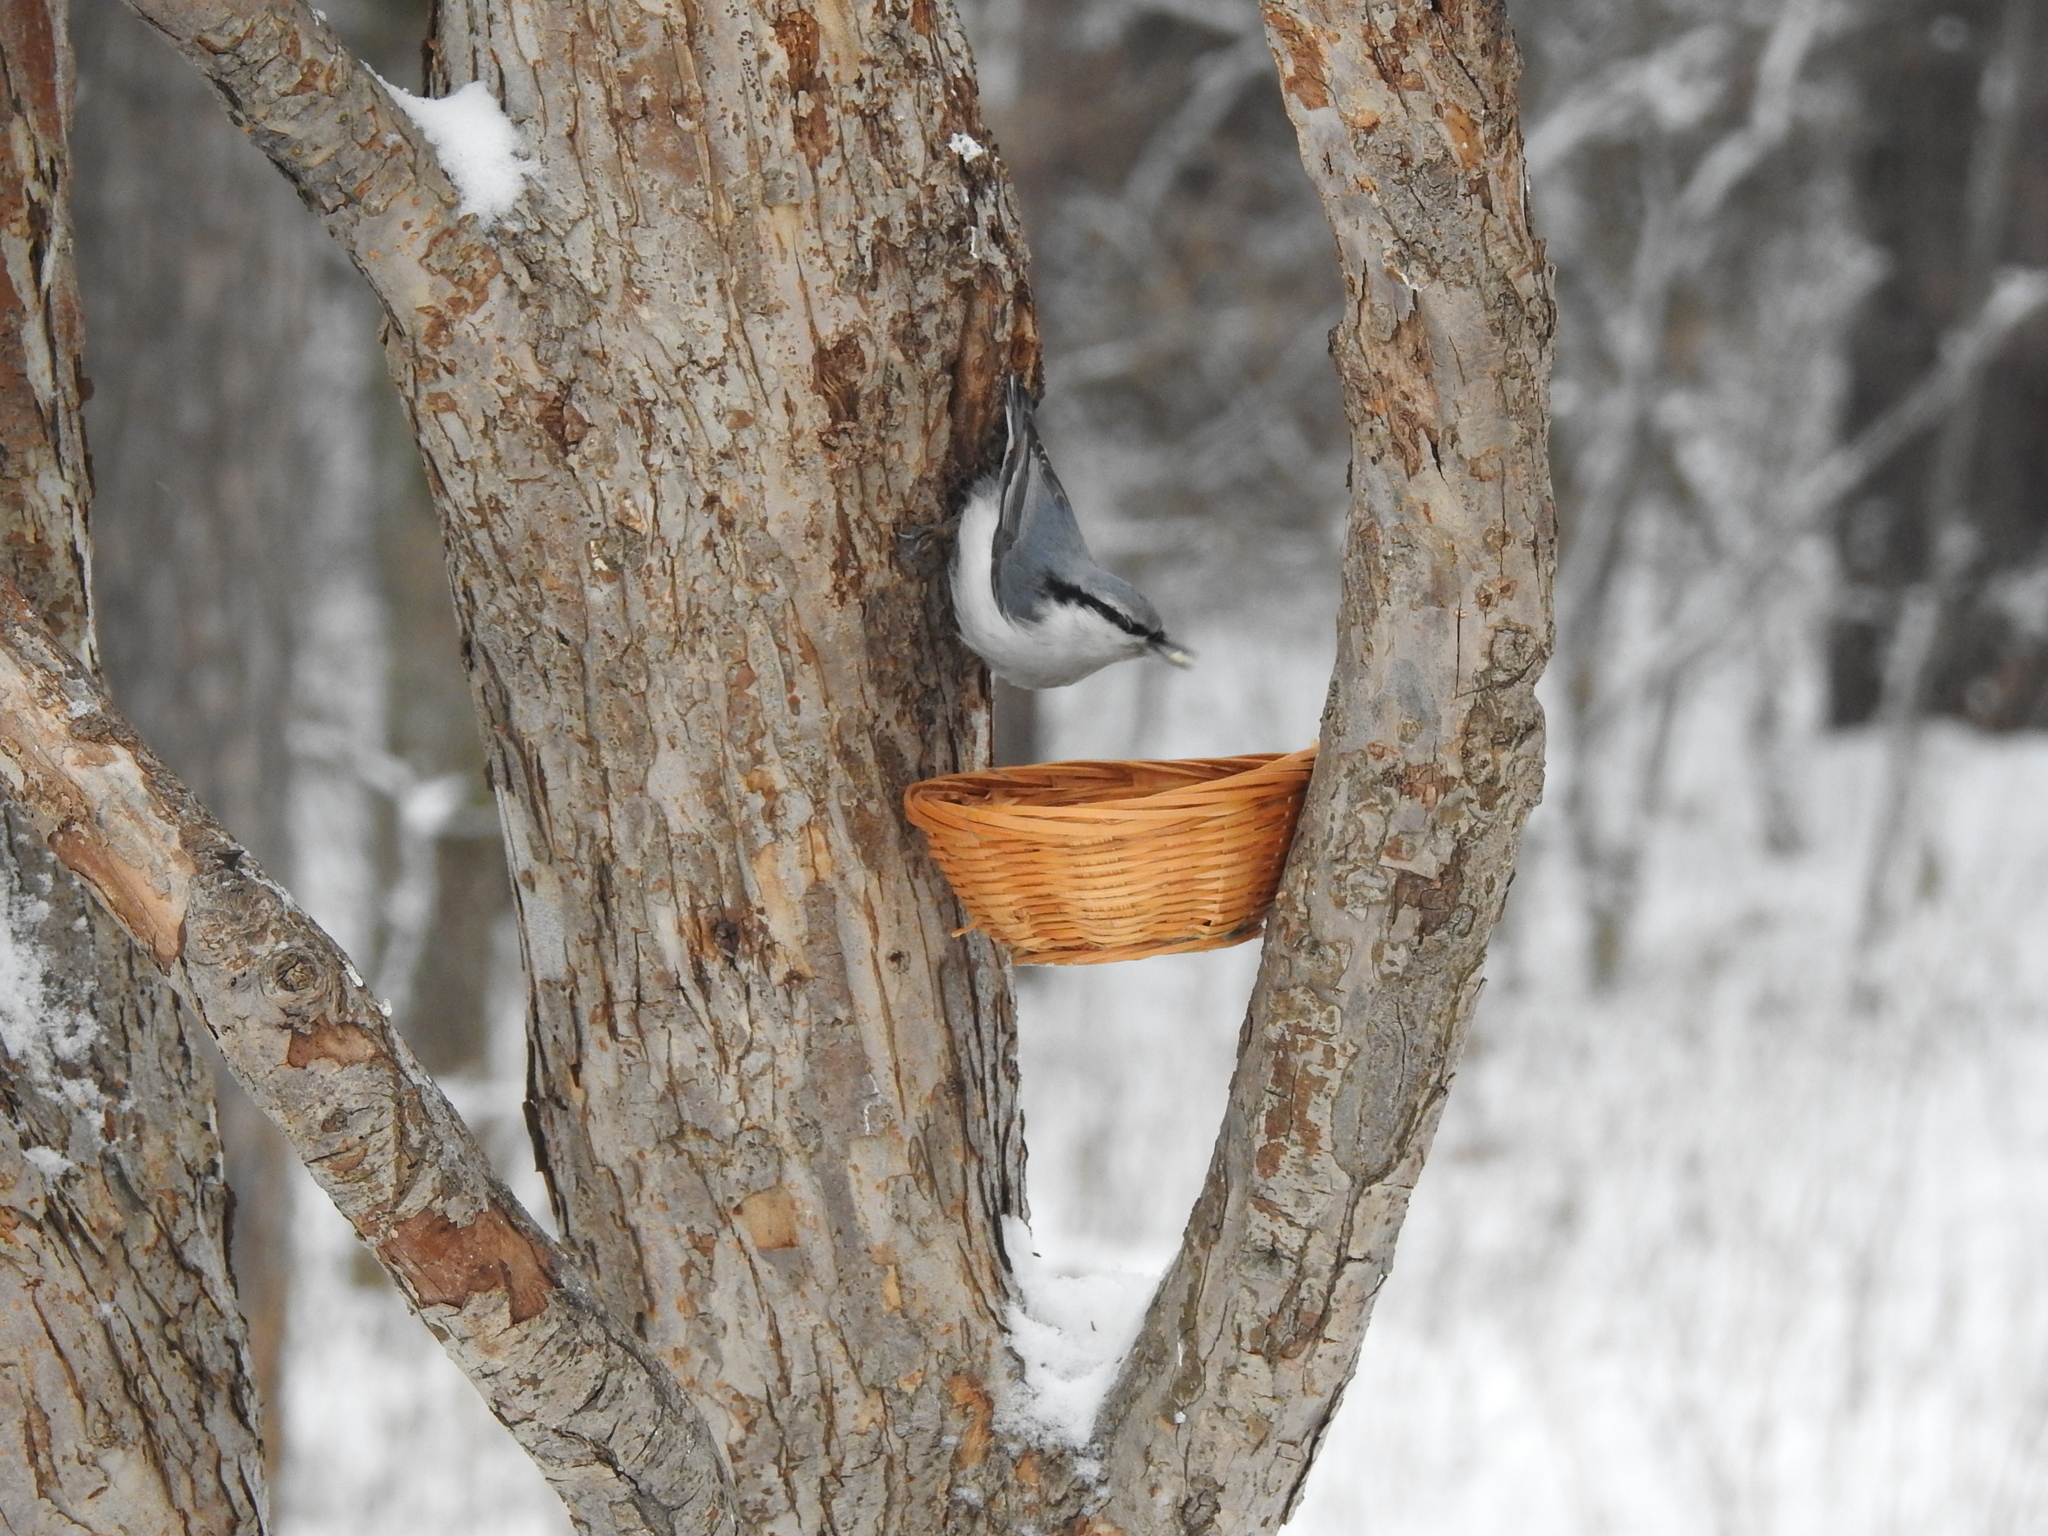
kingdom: Animalia
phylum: Chordata
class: Aves
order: Passeriformes
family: Sittidae
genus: Sitta
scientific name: Sitta europaea
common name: Eurasian nuthatch
